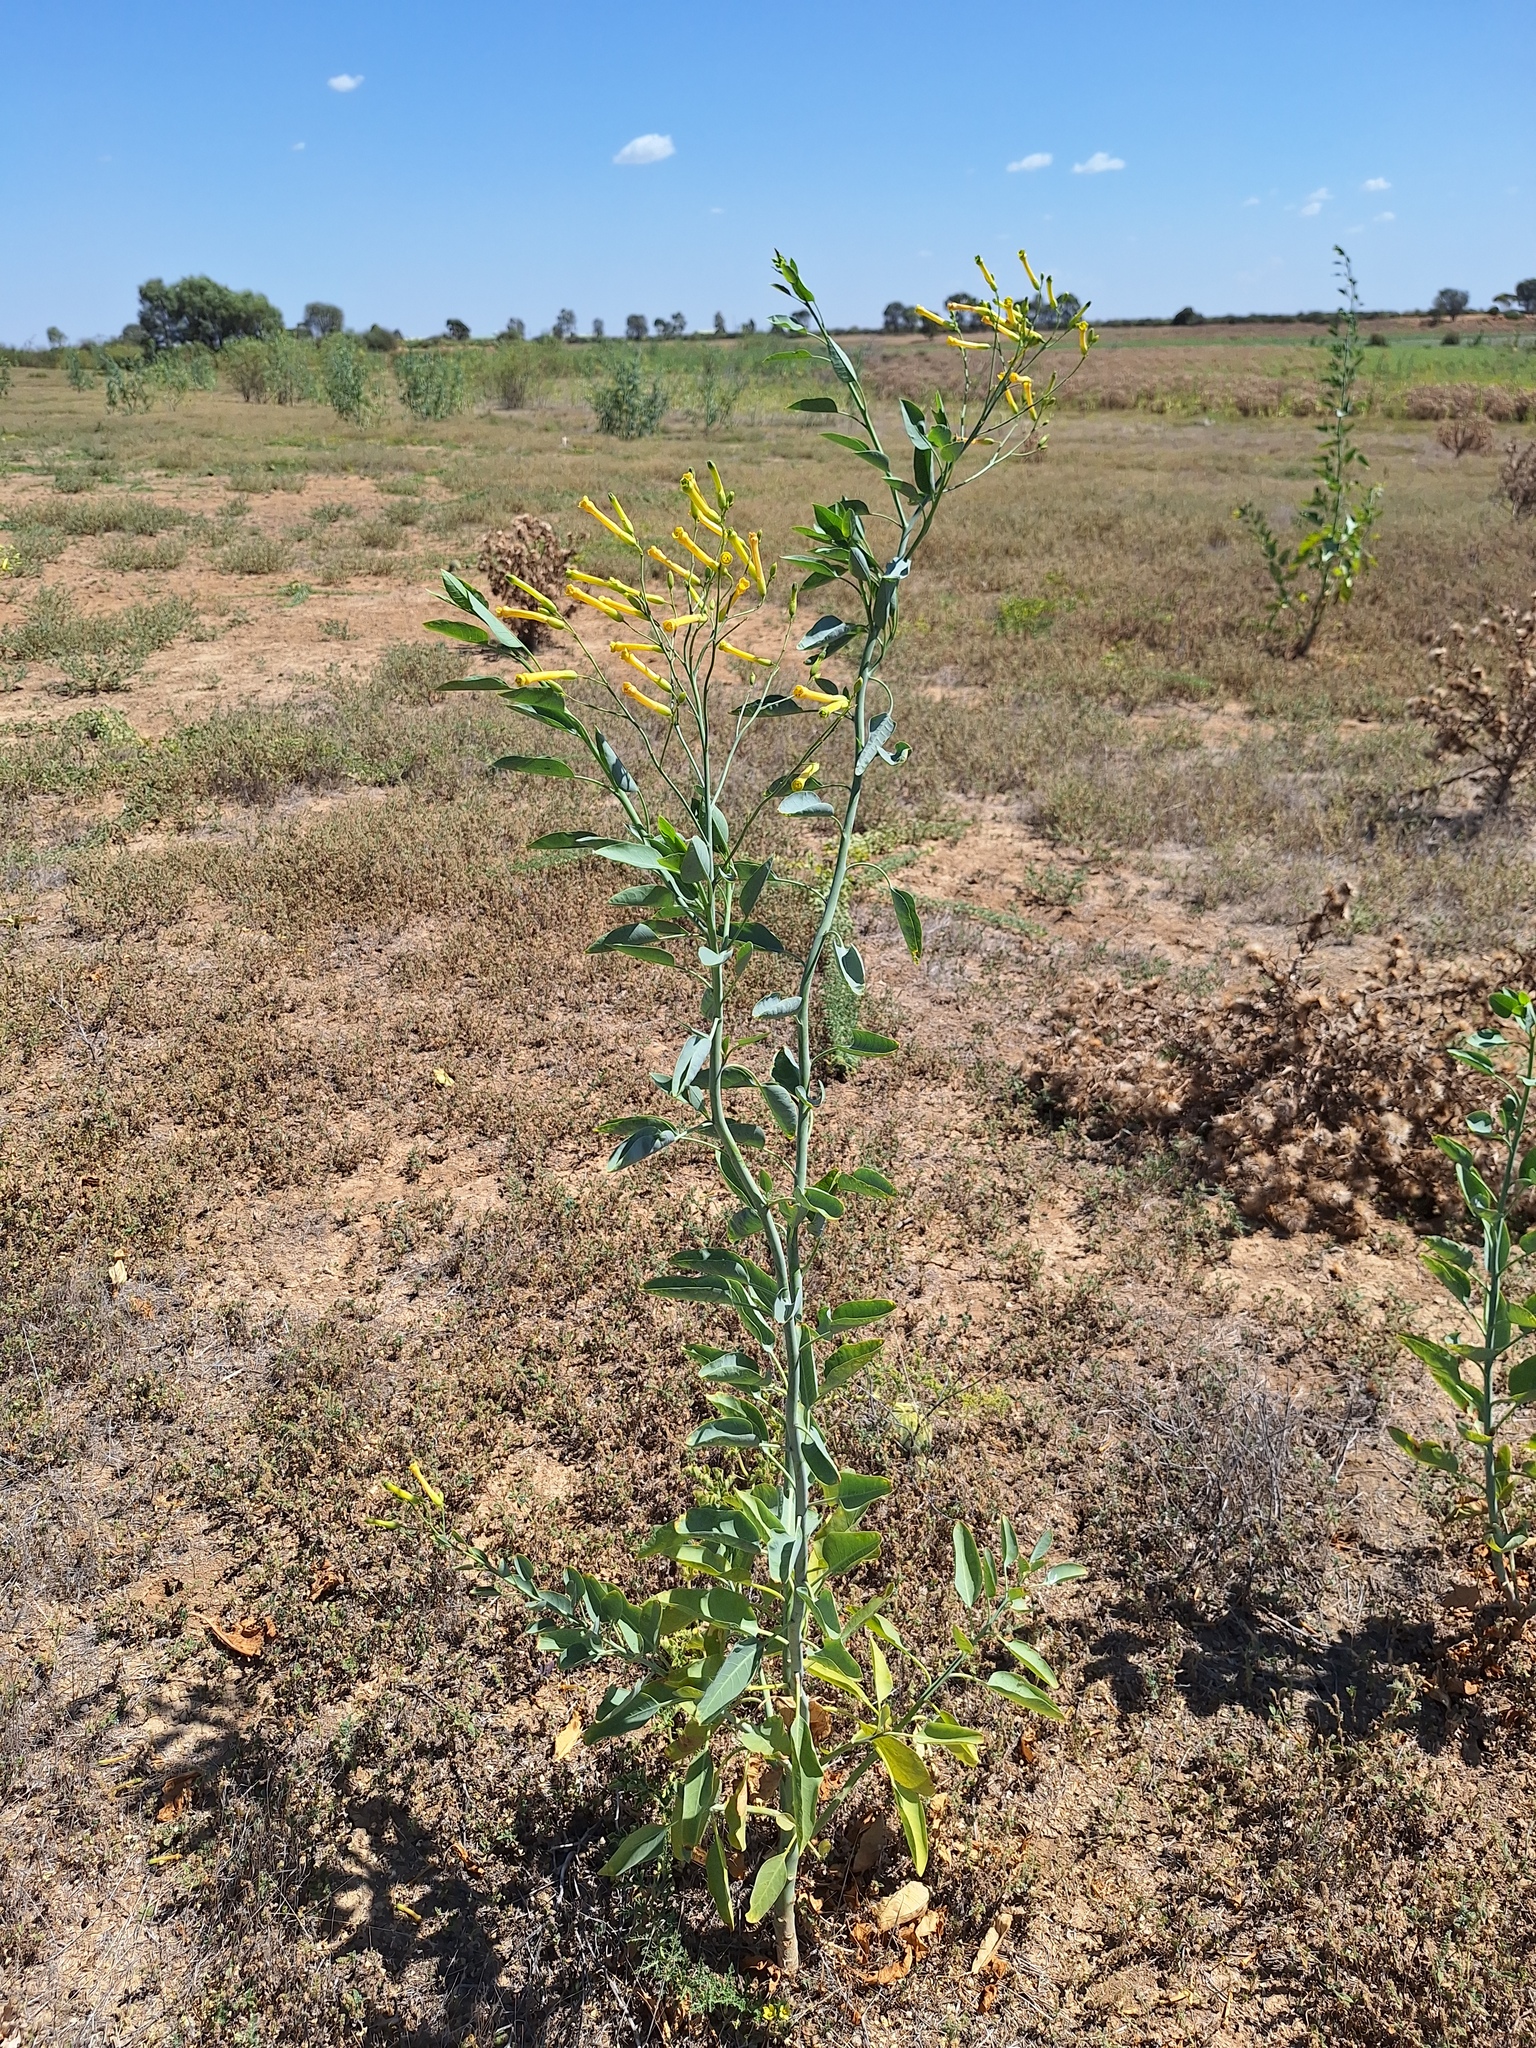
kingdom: Plantae
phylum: Tracheophyta
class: Magnoliopsida
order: Solanales
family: Solanaceae
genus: Nicotiana
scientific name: Nicotiana glauca
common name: Tree tobacco
